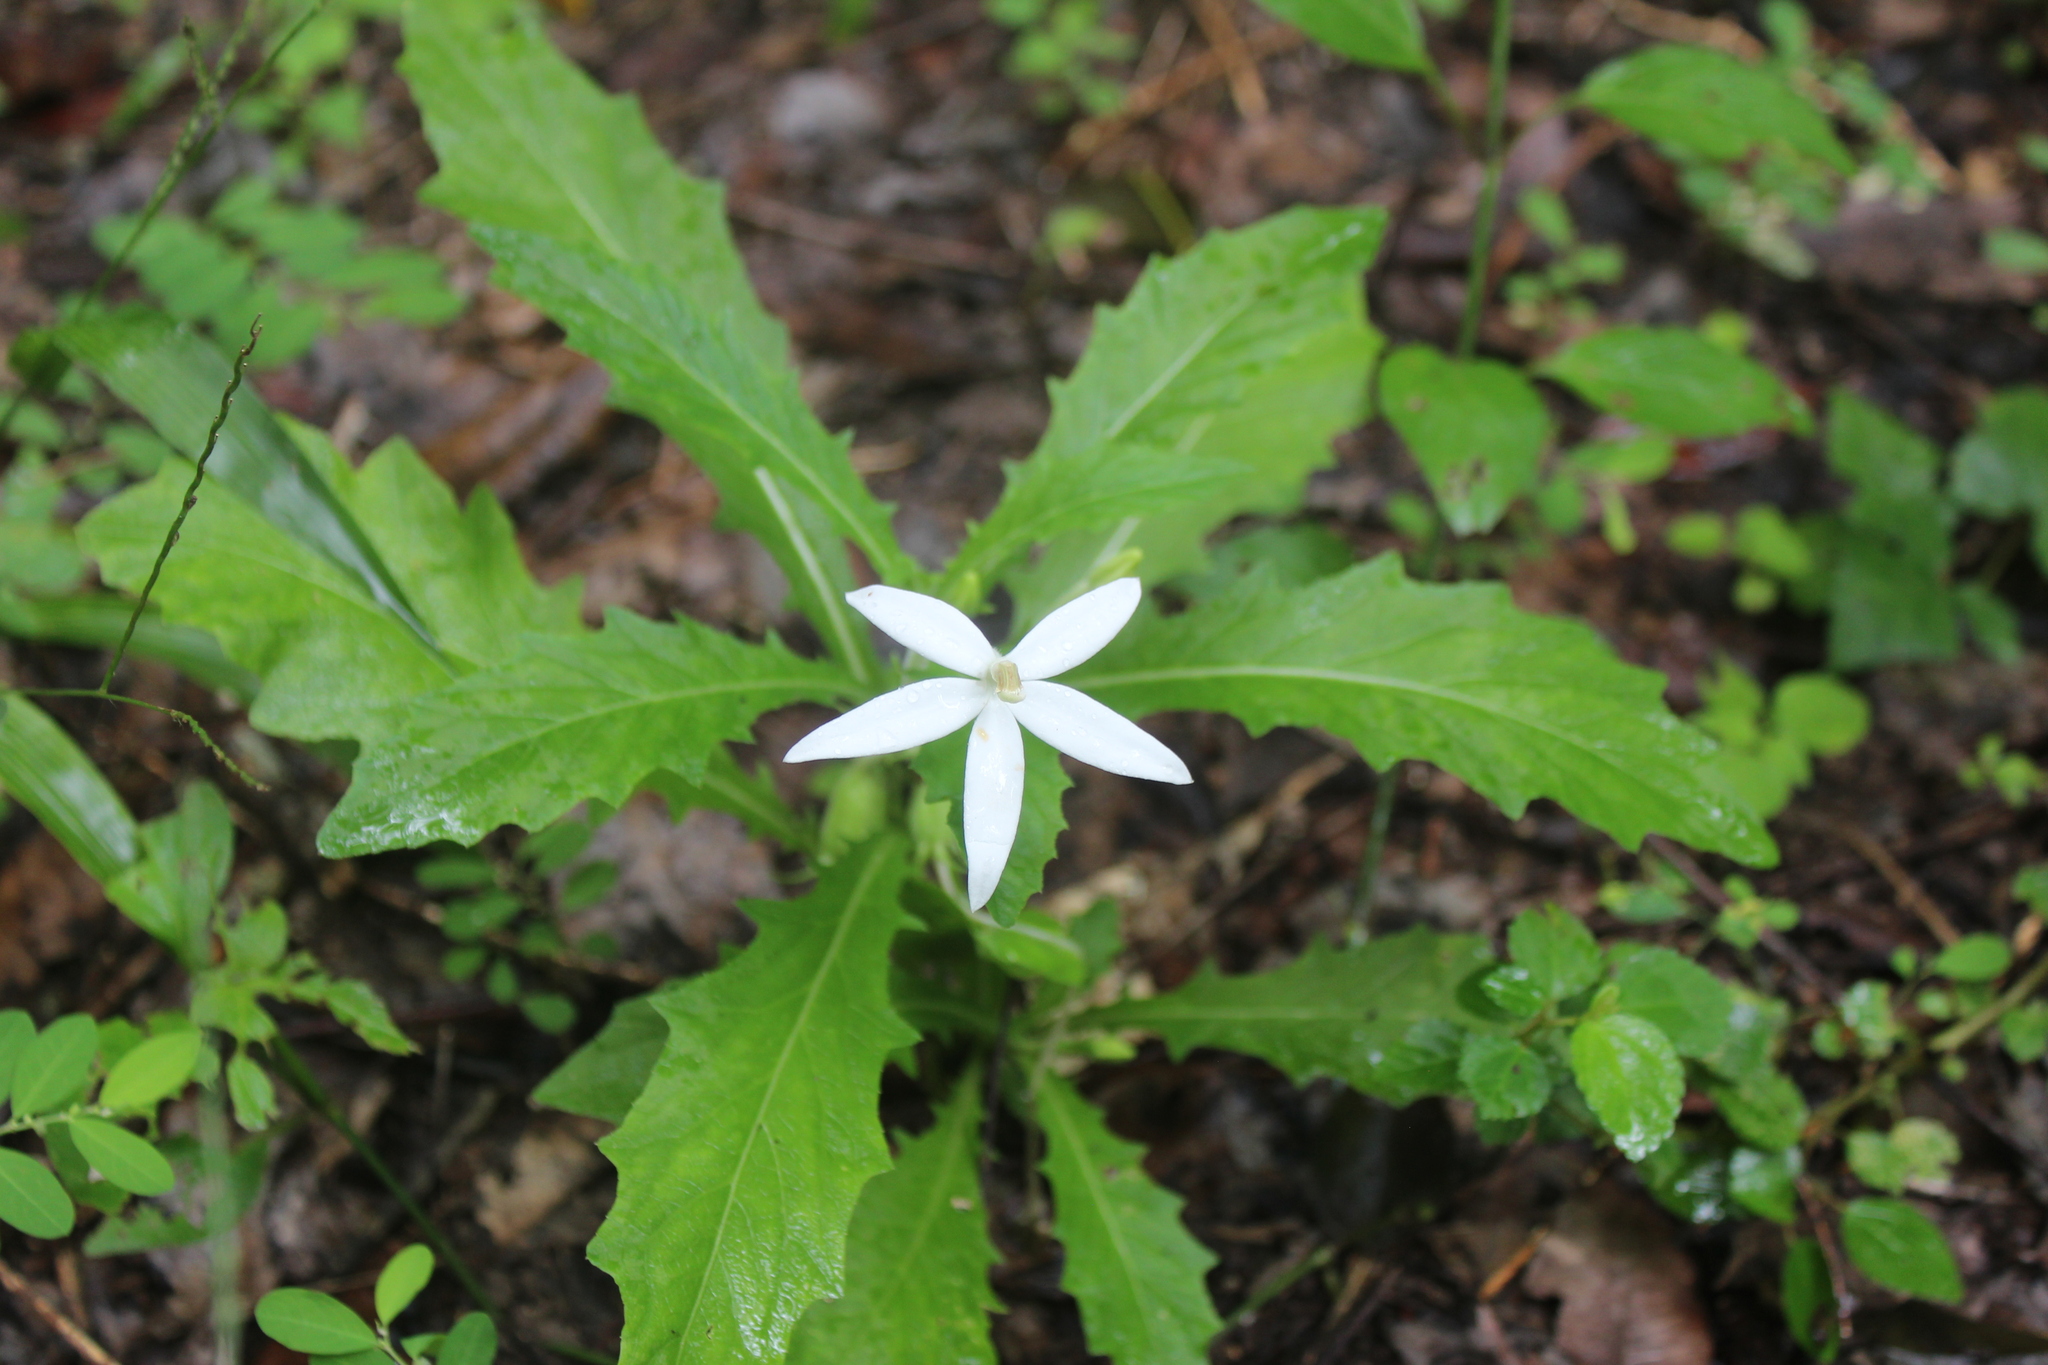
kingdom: Plantae
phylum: Tracheophyta
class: Magnoliopsida
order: Asterales
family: Campanulaceae
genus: Hippobroma
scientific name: Hippobroma longiflora
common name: Madamfate
